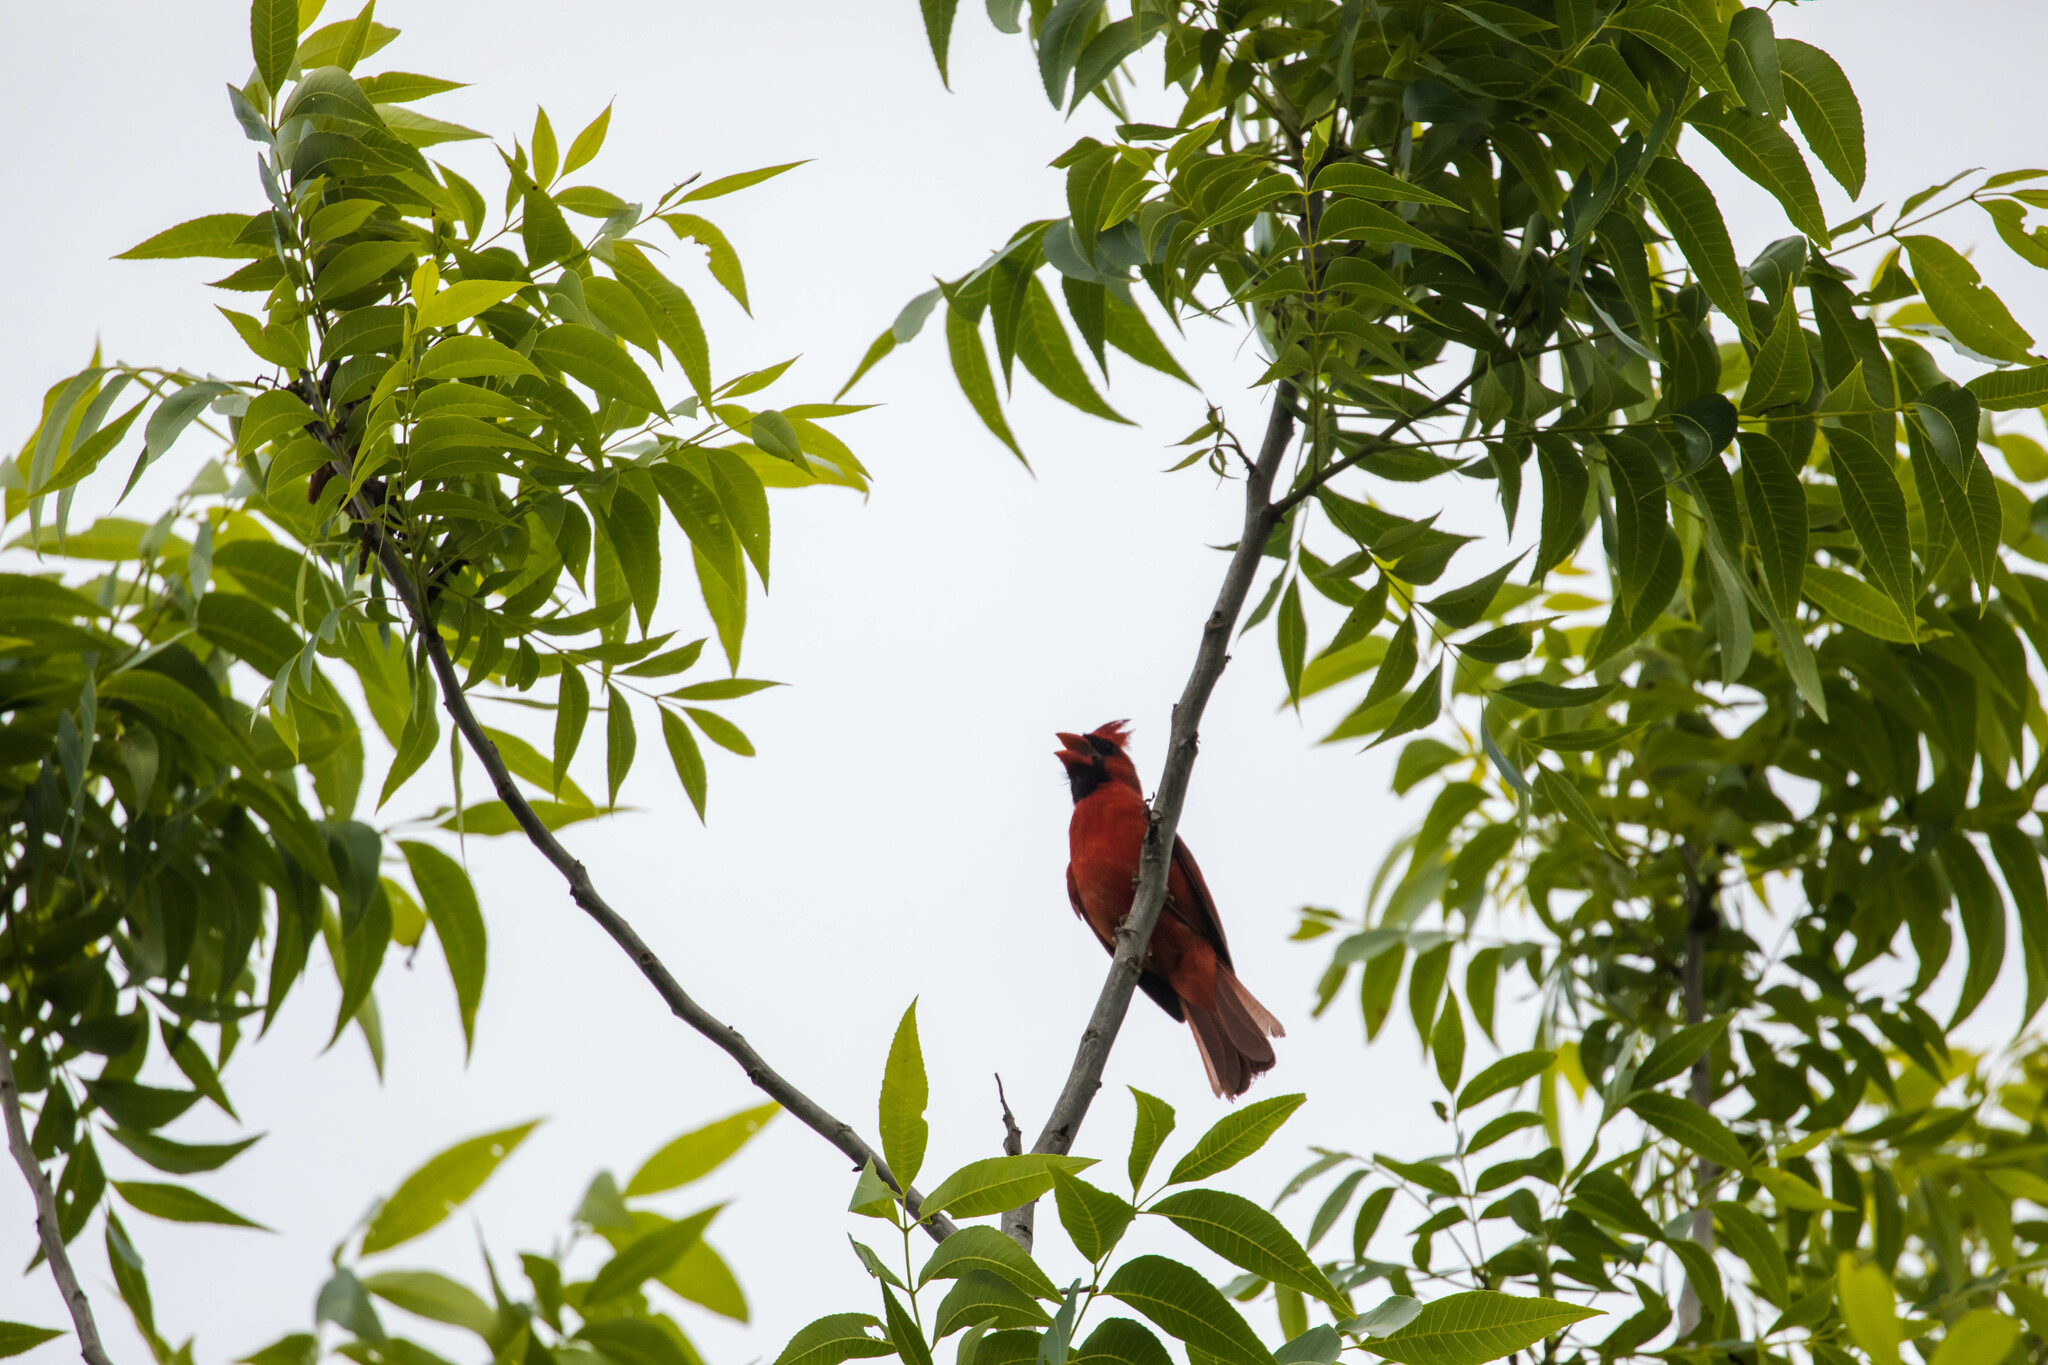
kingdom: Animalia
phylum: Chordata
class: Aves
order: Passeriformes
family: Cardinalidae
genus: Cardinalis
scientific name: Cardinalis cardinalis
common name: Northern cardinal
